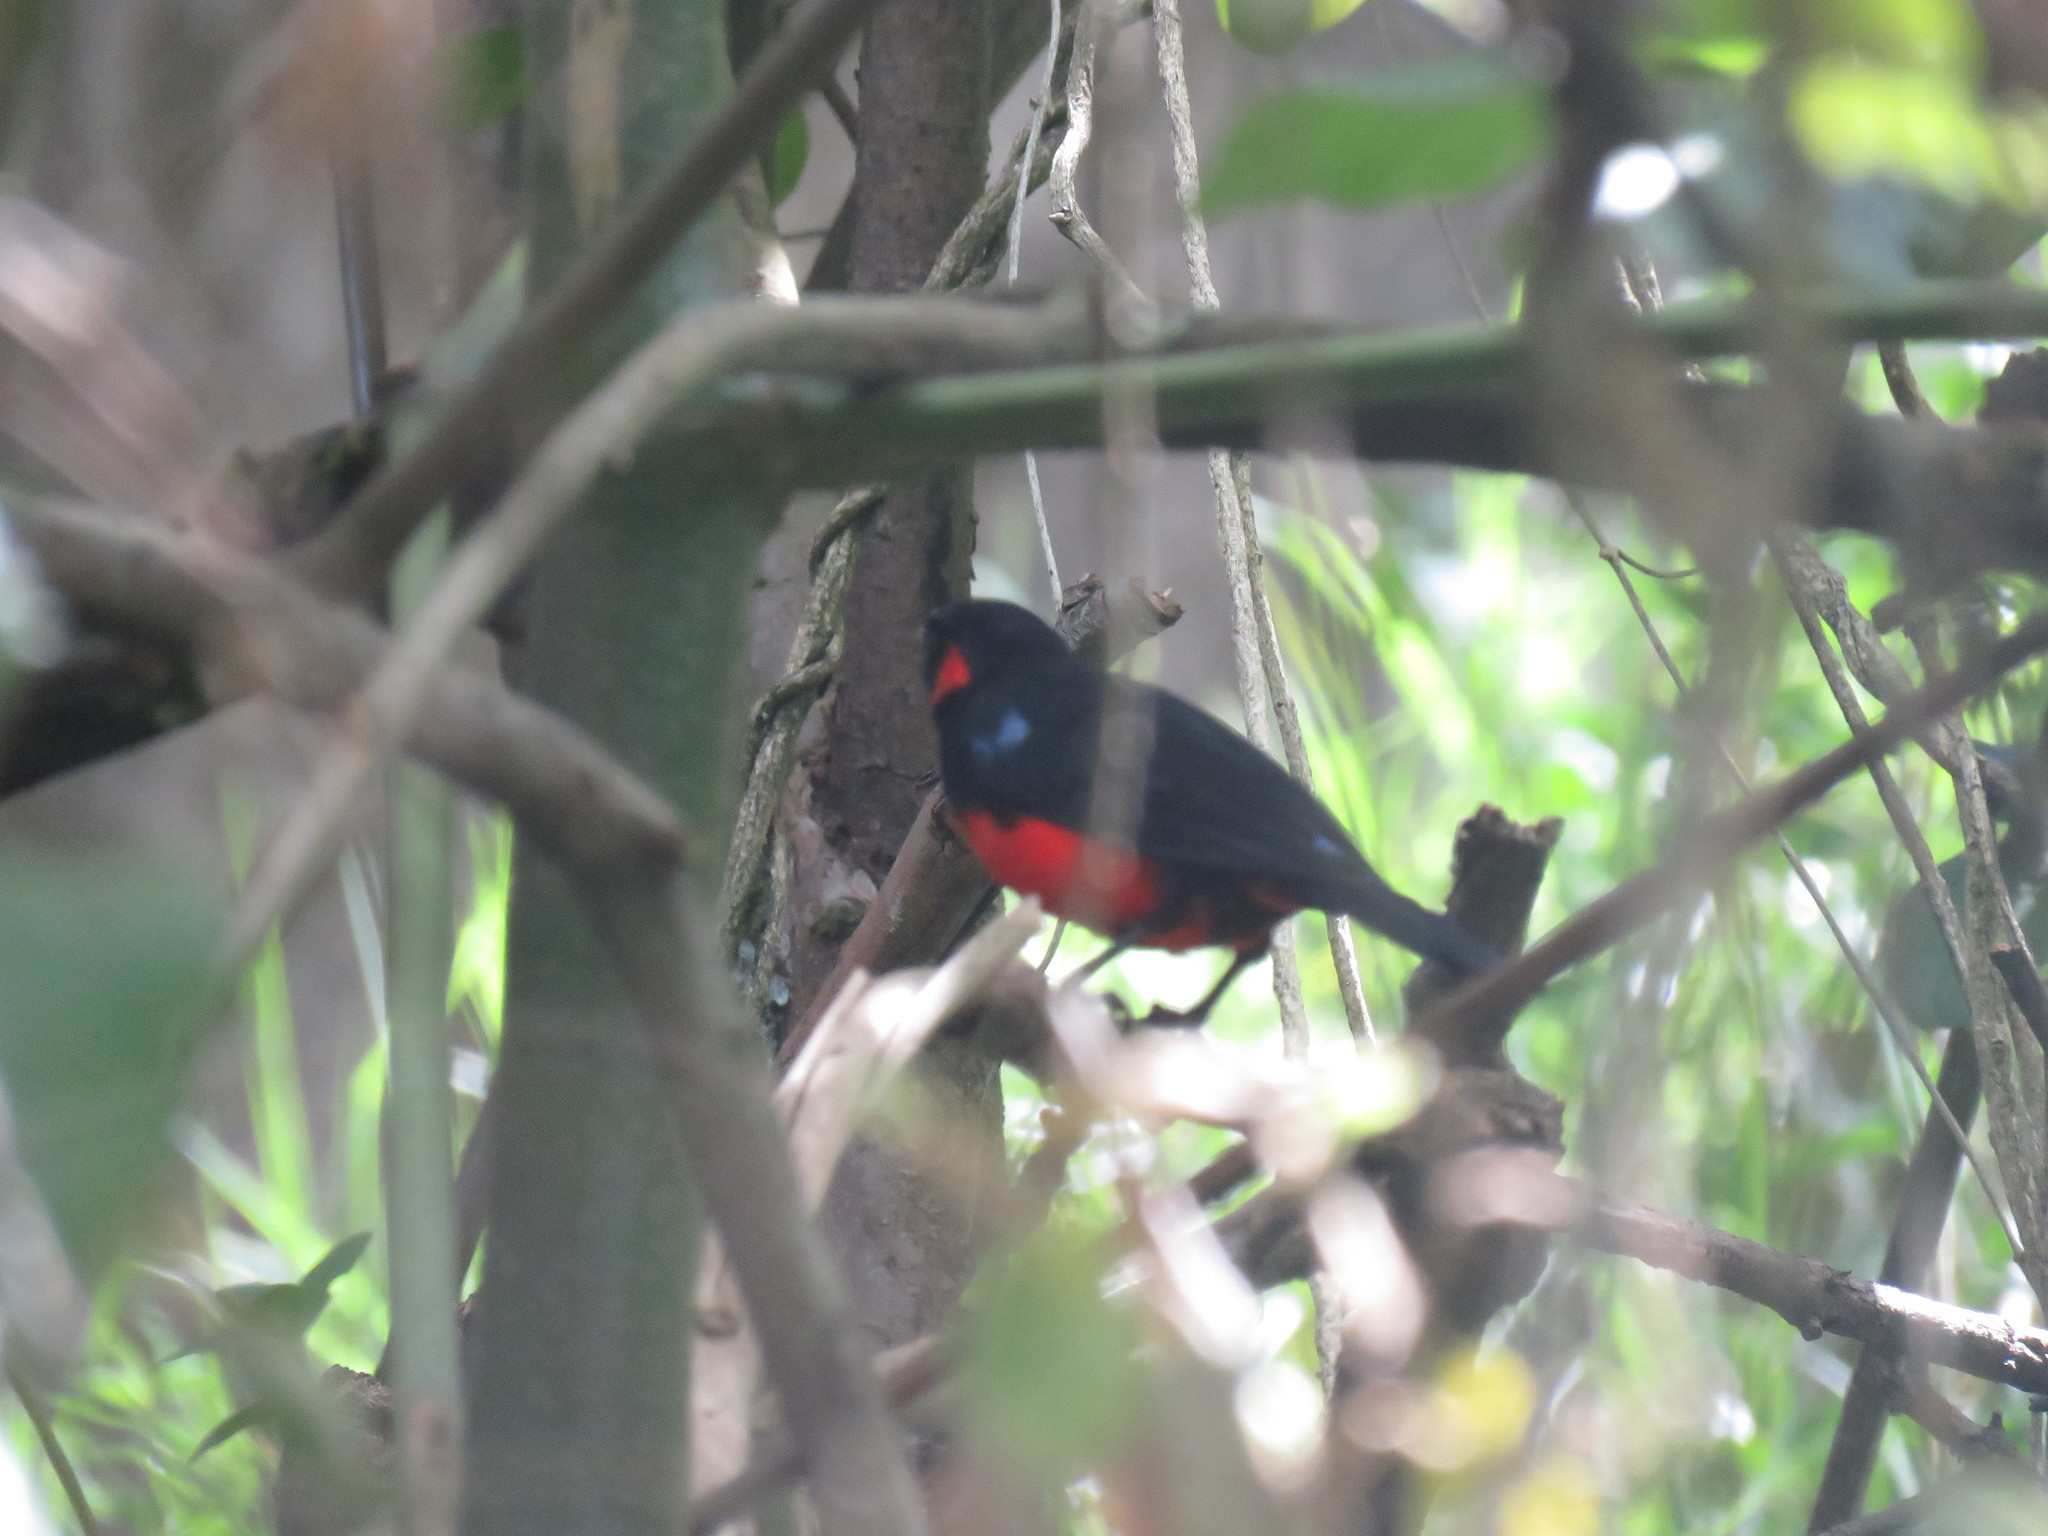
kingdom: Animalia
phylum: Chordata
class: Aves
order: Passeriformes
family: Thraupidae
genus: Anisognathus
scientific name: Anisognathus igniventris
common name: Scarlet-bellied mountain tanager
